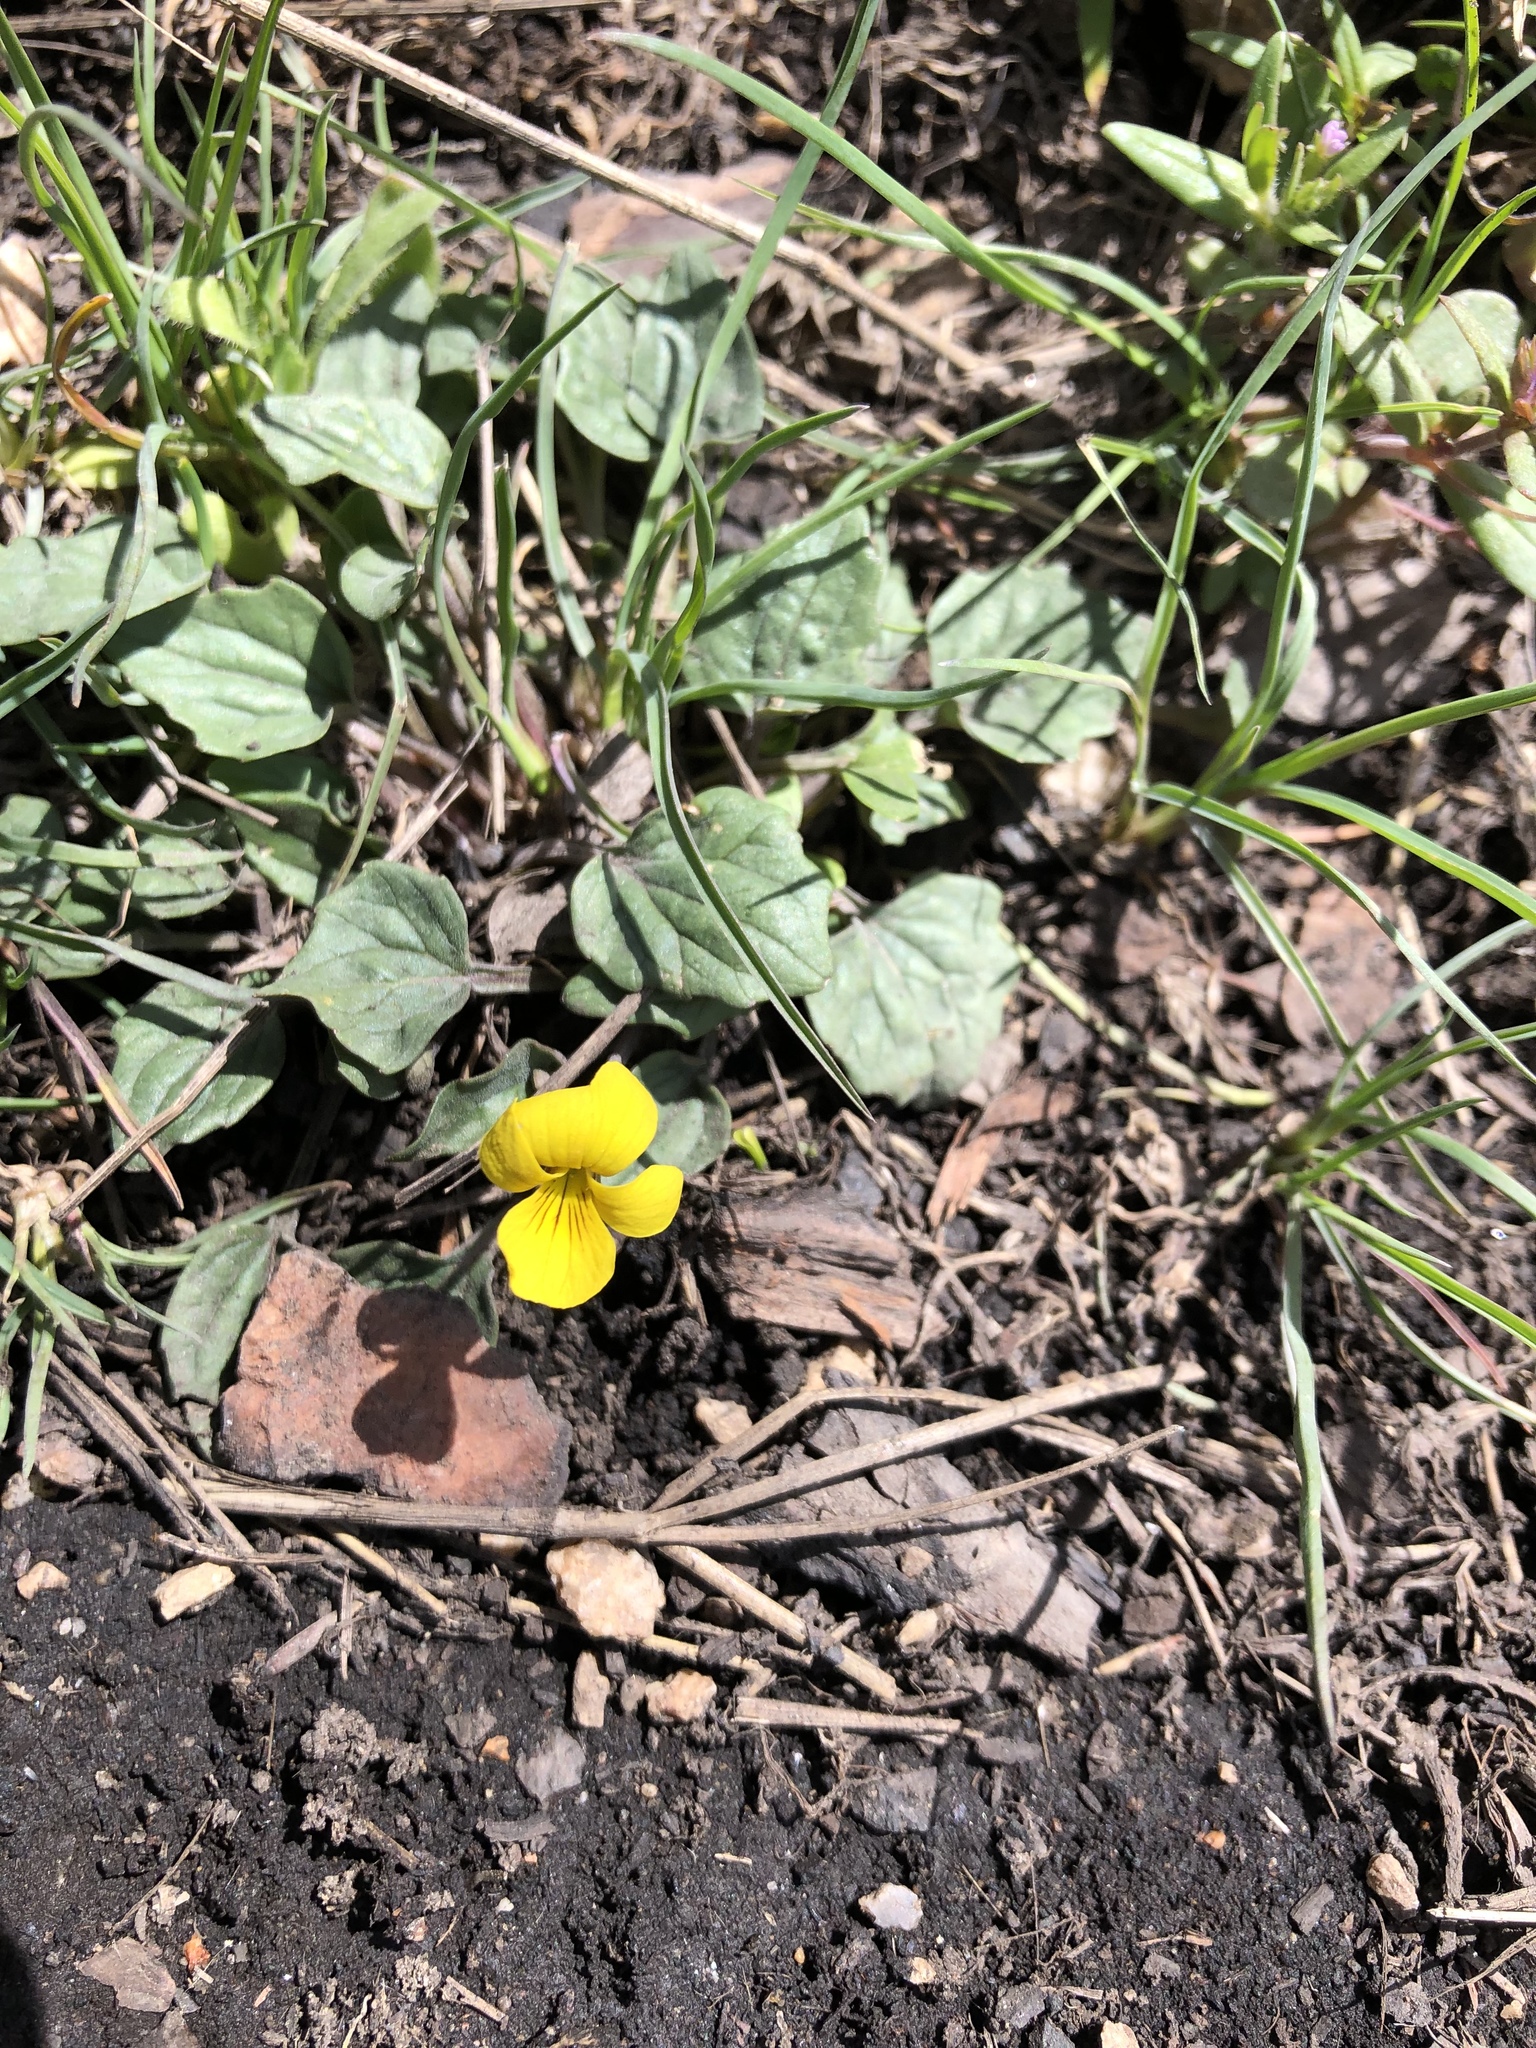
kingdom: Plantae
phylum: Tracheophyta
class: Magnoliopsida
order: Malpighiales
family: Violaceae
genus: Viola
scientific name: Viola purpurea
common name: Pine violet
